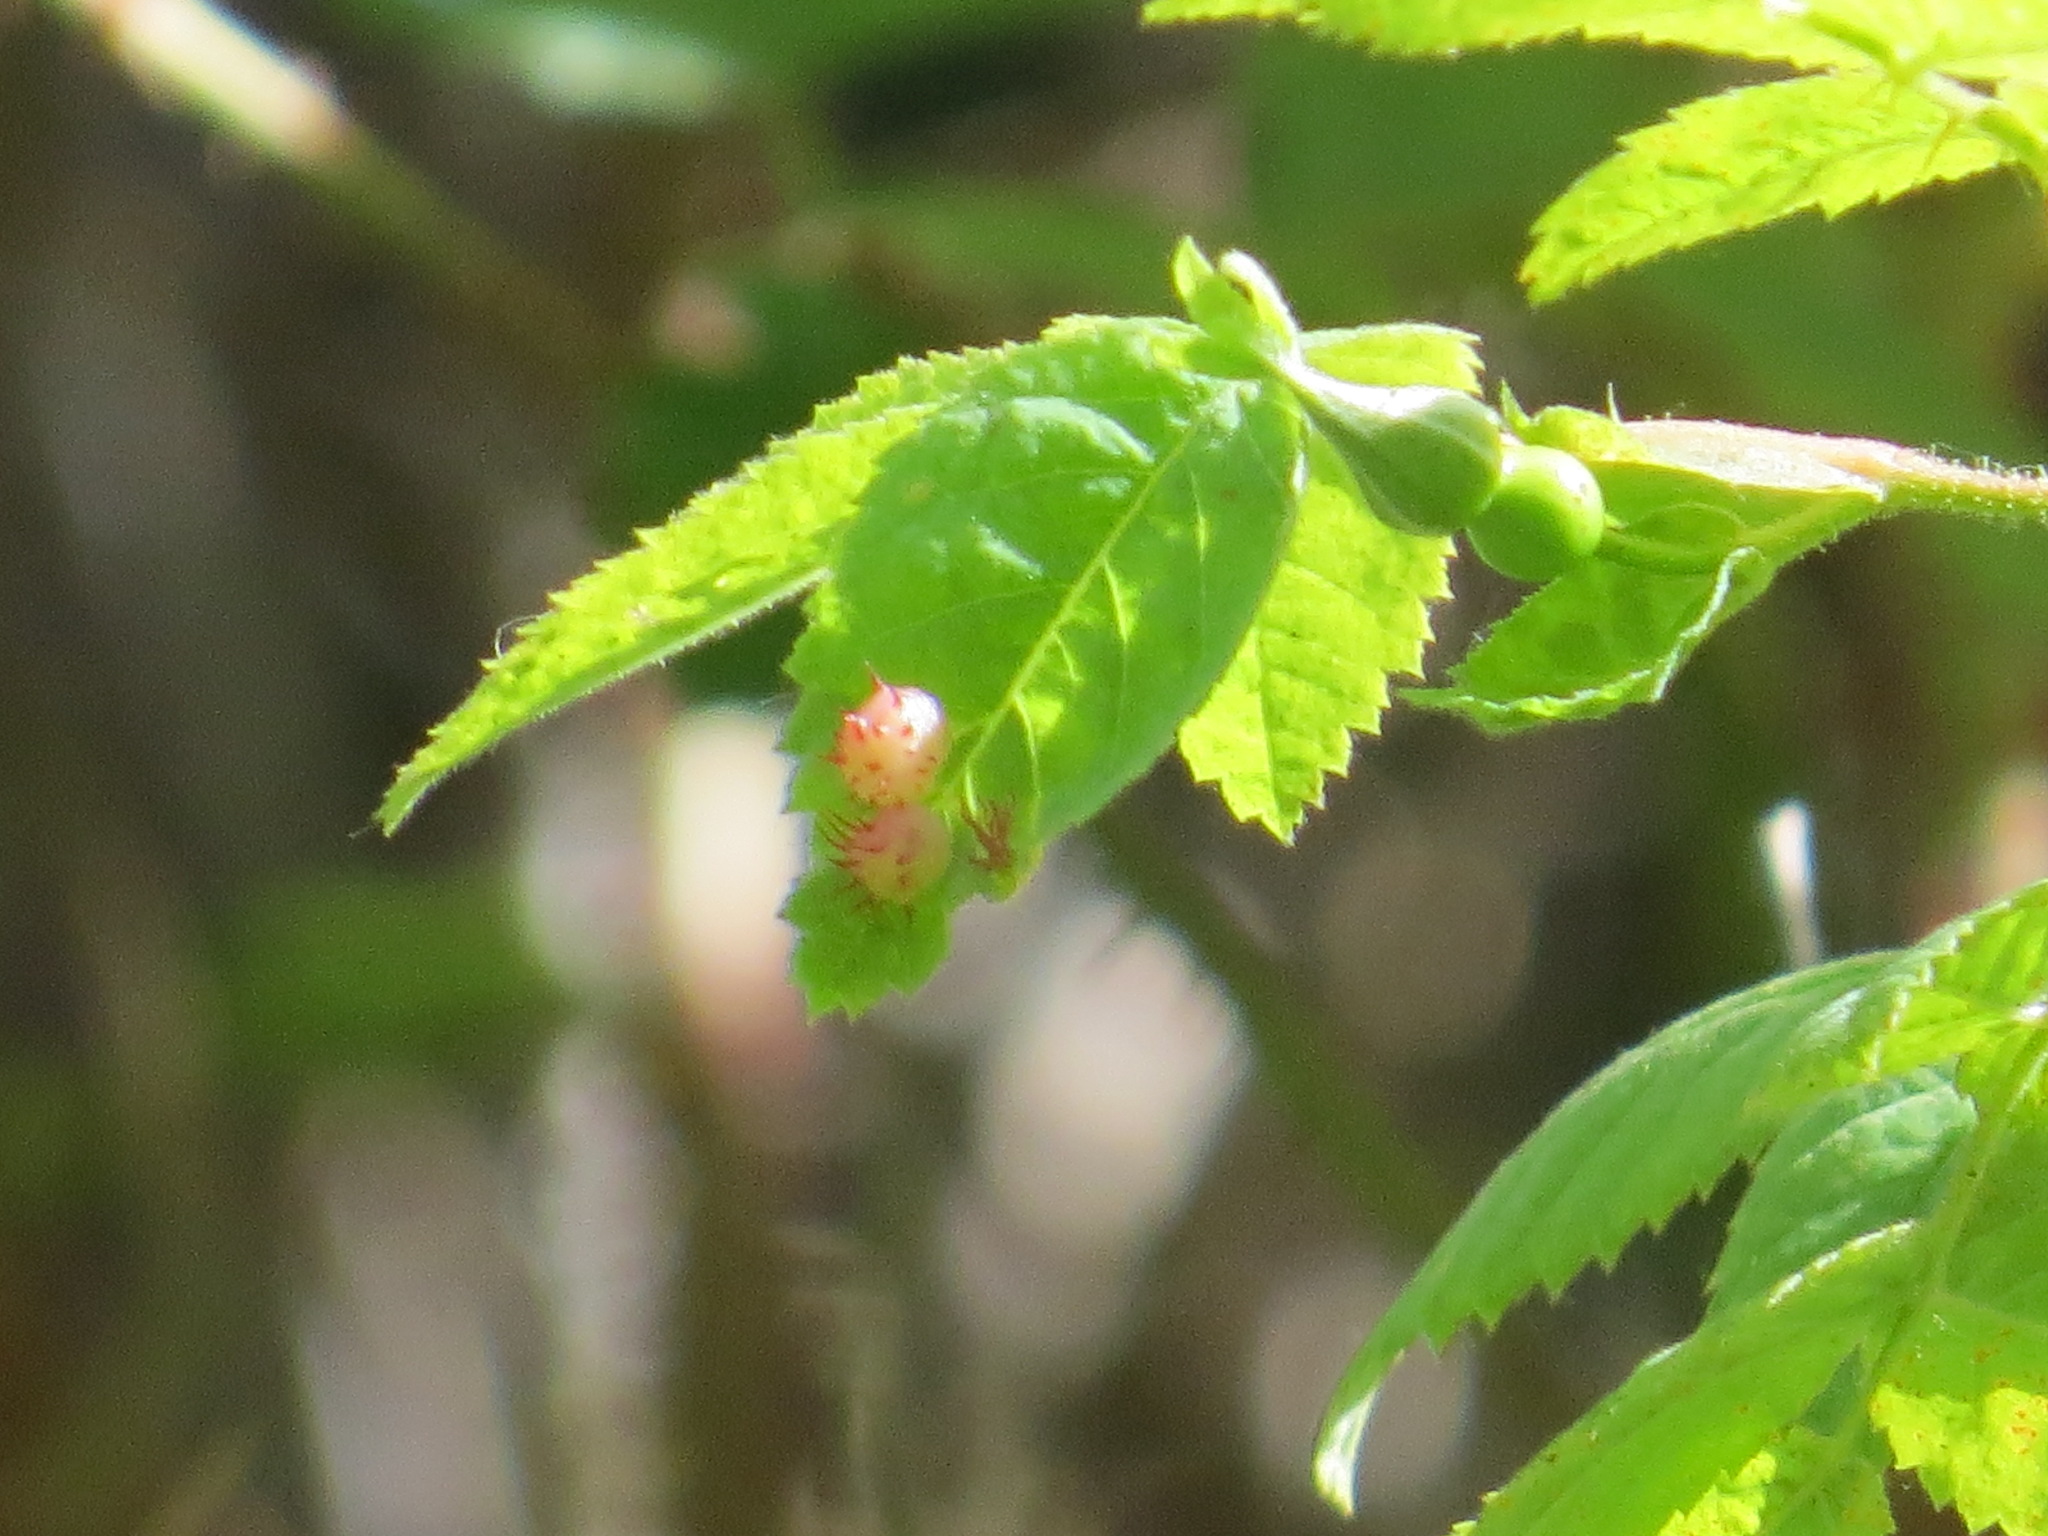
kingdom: Animalia
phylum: Arthropoda
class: Insecta
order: Hymenoptera
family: Cynipidae
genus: Diplolepis
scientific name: Diplolepis polita
